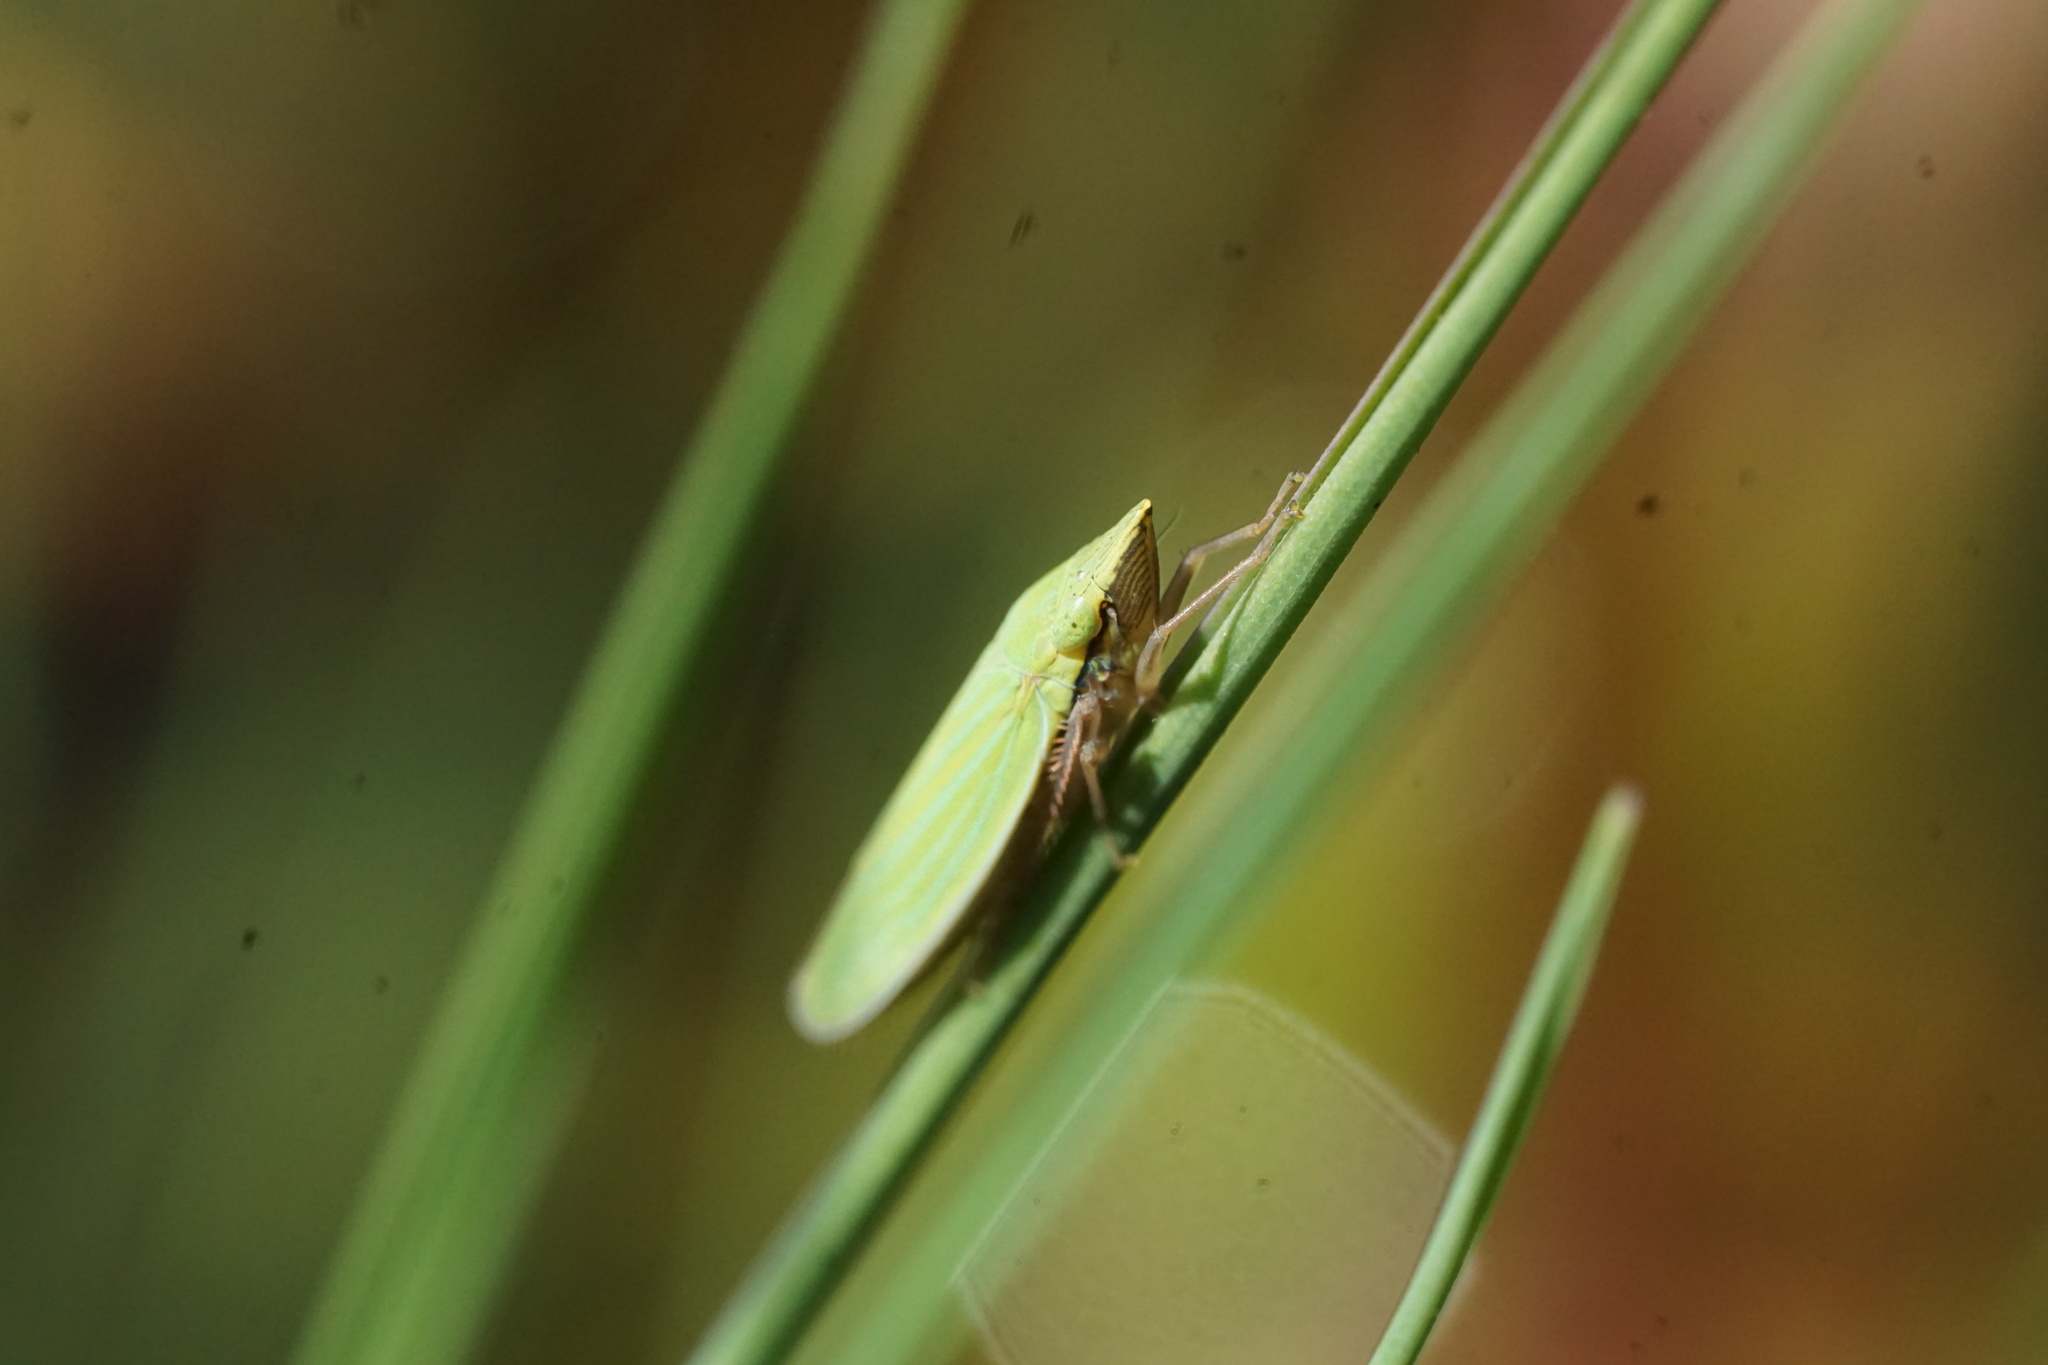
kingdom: Animalia
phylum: Arthropoda
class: Insecta
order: Hemiptera
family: Cicadellidae
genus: Draeculacephala
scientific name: Draeculacephala robinsoni
